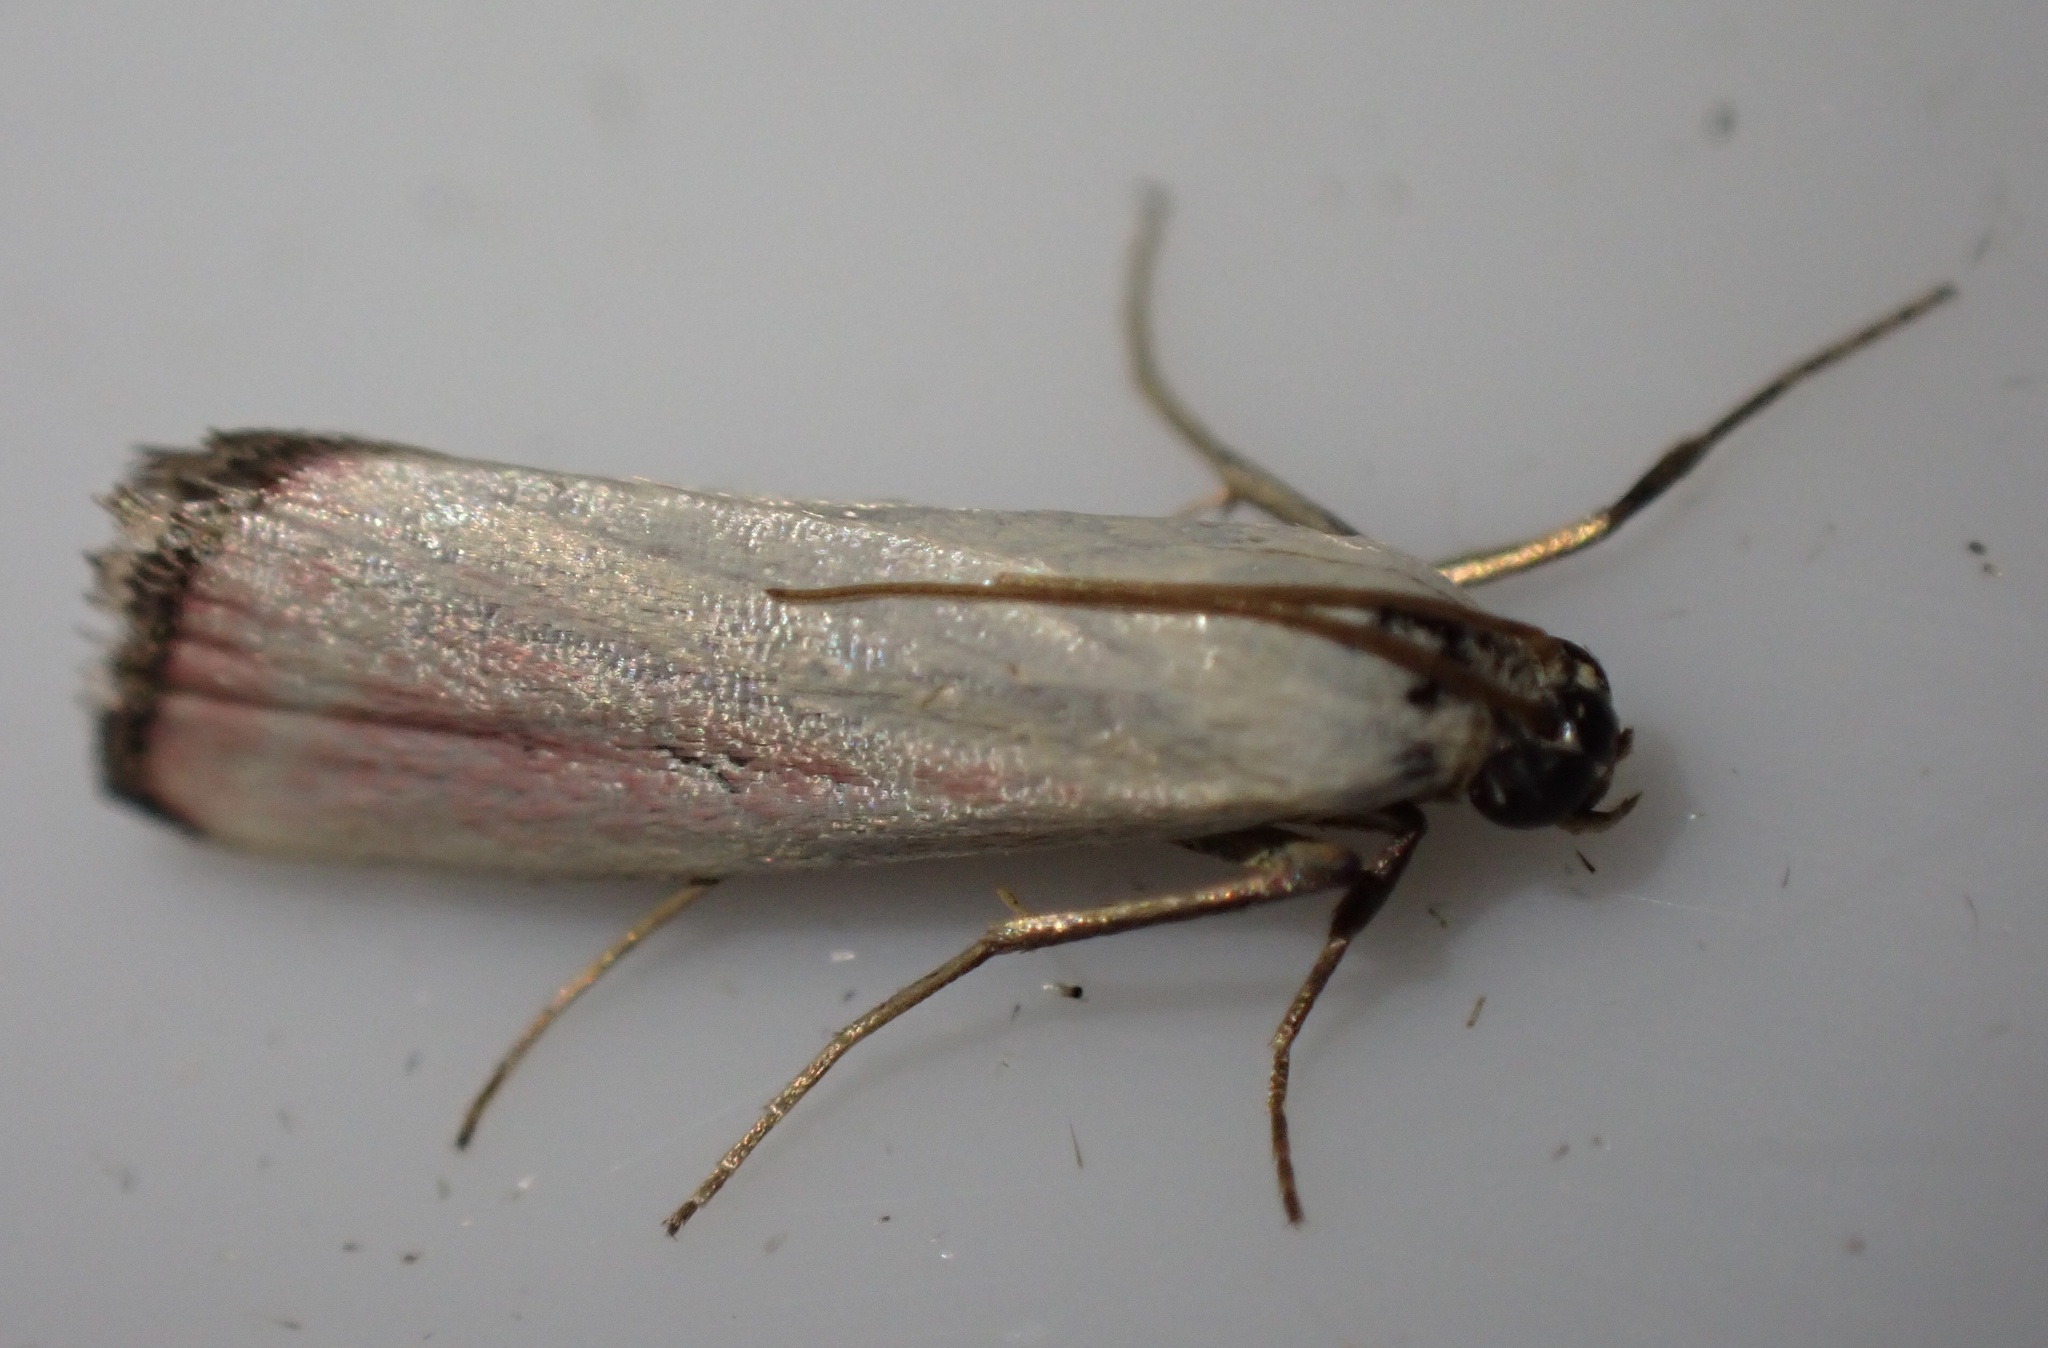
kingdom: Animalia
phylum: Arthropoda
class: Insecta
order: Lepidoptera
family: Pyralidae
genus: Eurhodope
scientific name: Eurhodope rosella
